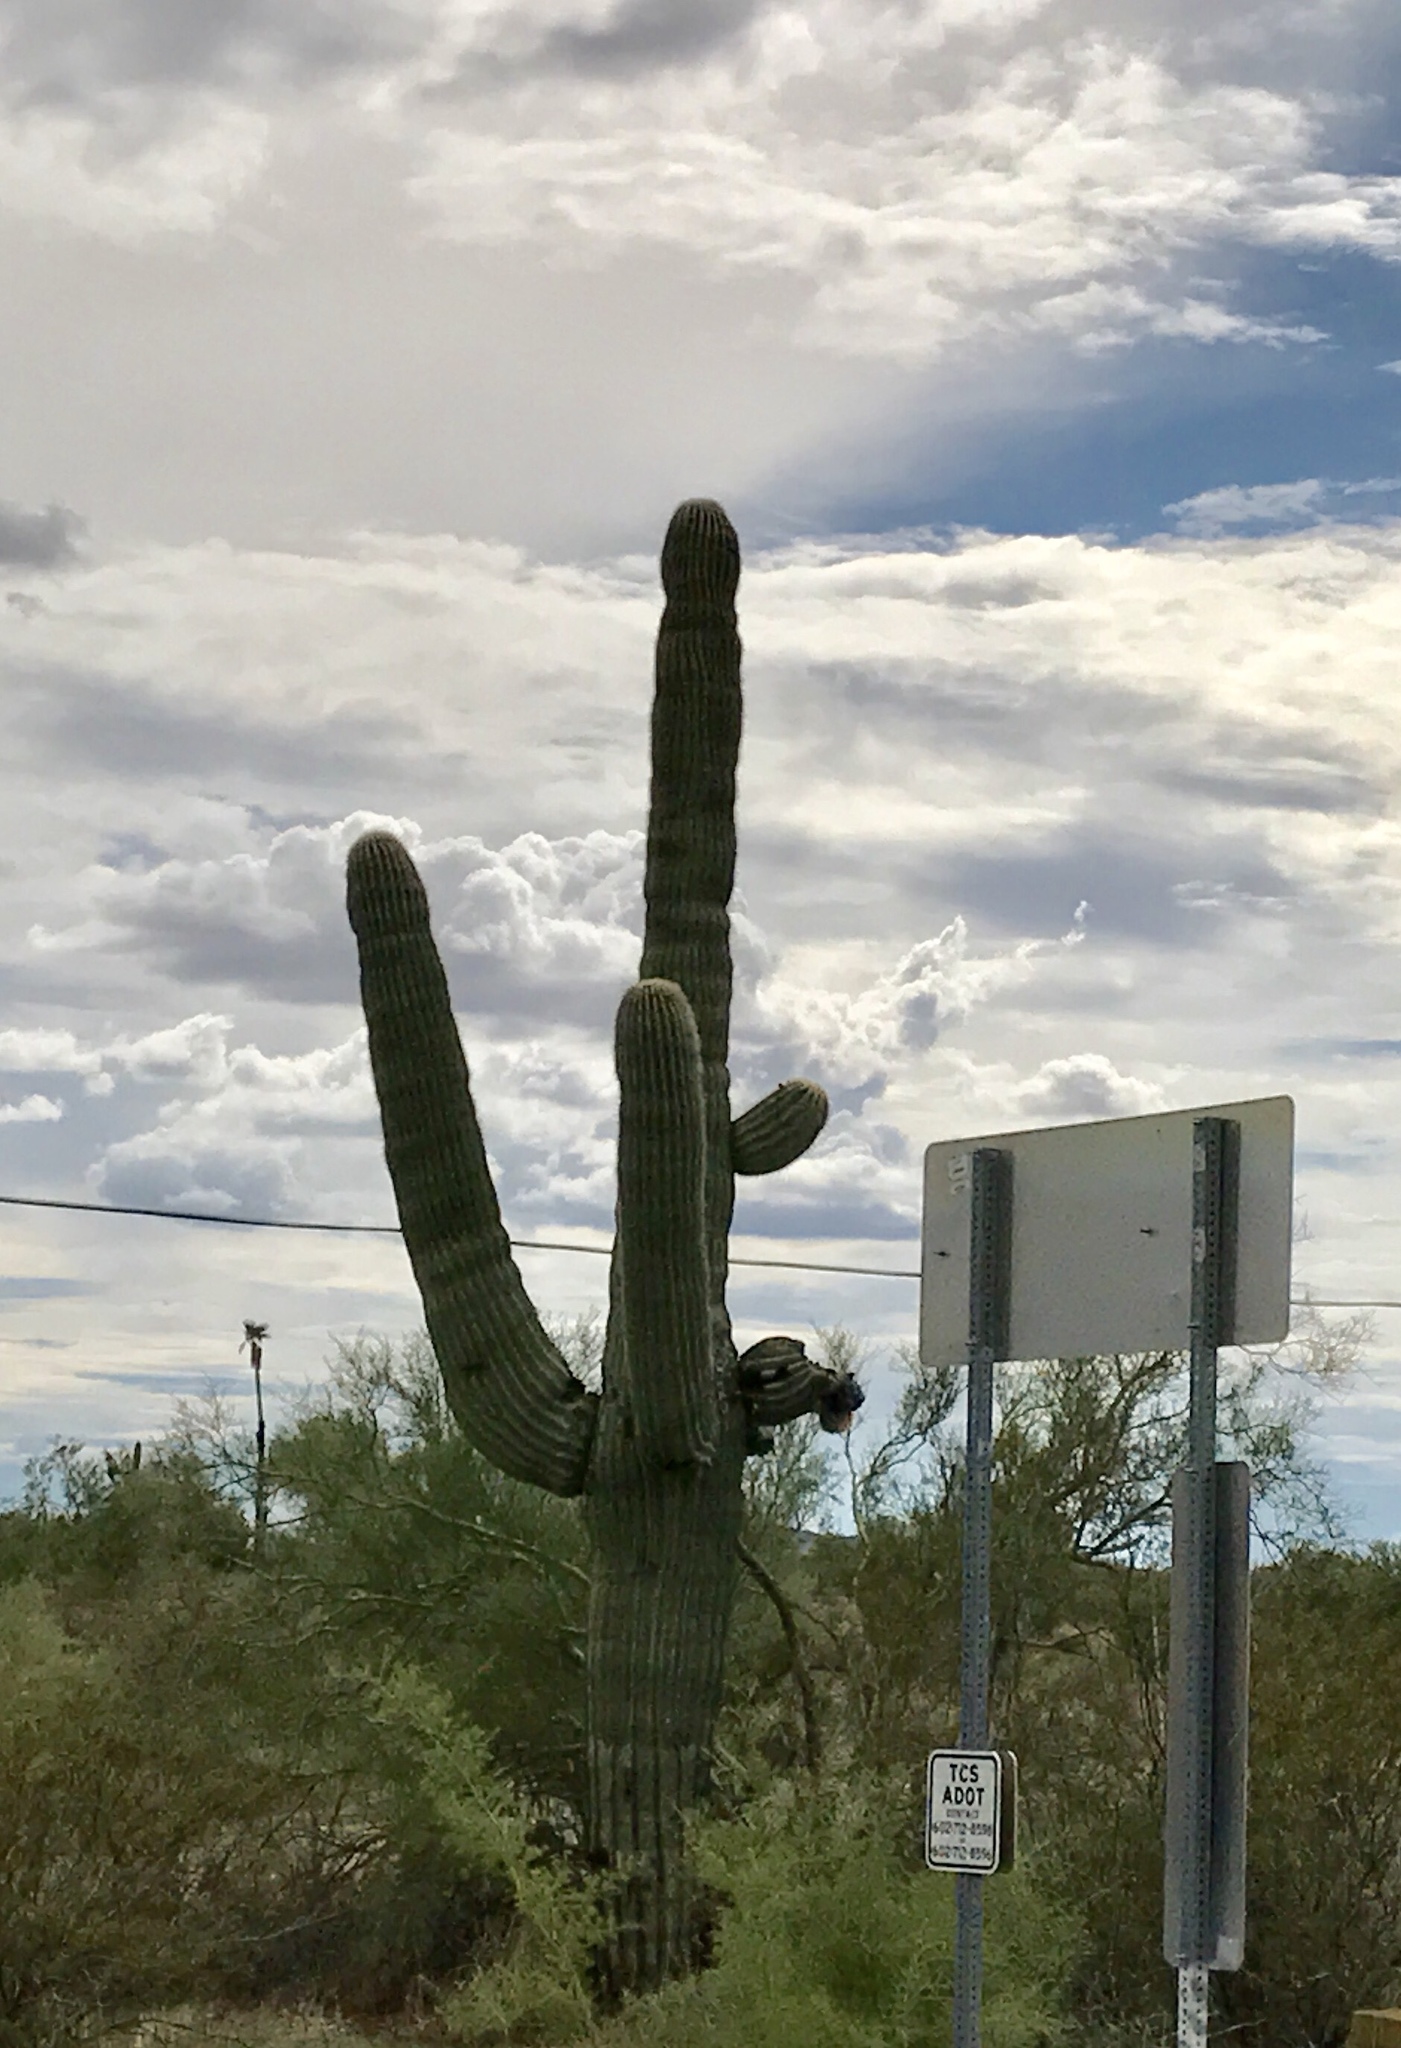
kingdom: Plantae
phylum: Tracheophyta
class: Magnoliopsida
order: Caryophyllales
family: Cactaceae
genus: Carnegiea
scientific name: Carnegiea gigantea
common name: Saguaro
